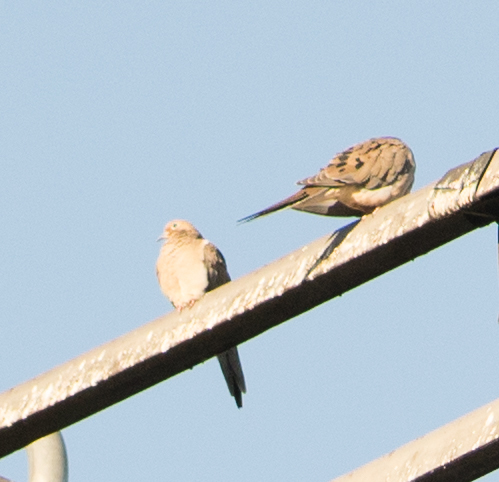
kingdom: Animalia
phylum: Chordata
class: Aves
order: Columbiformes
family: Columbidae
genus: Zenaida
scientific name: Zenaida macroura
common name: Mourning dove
